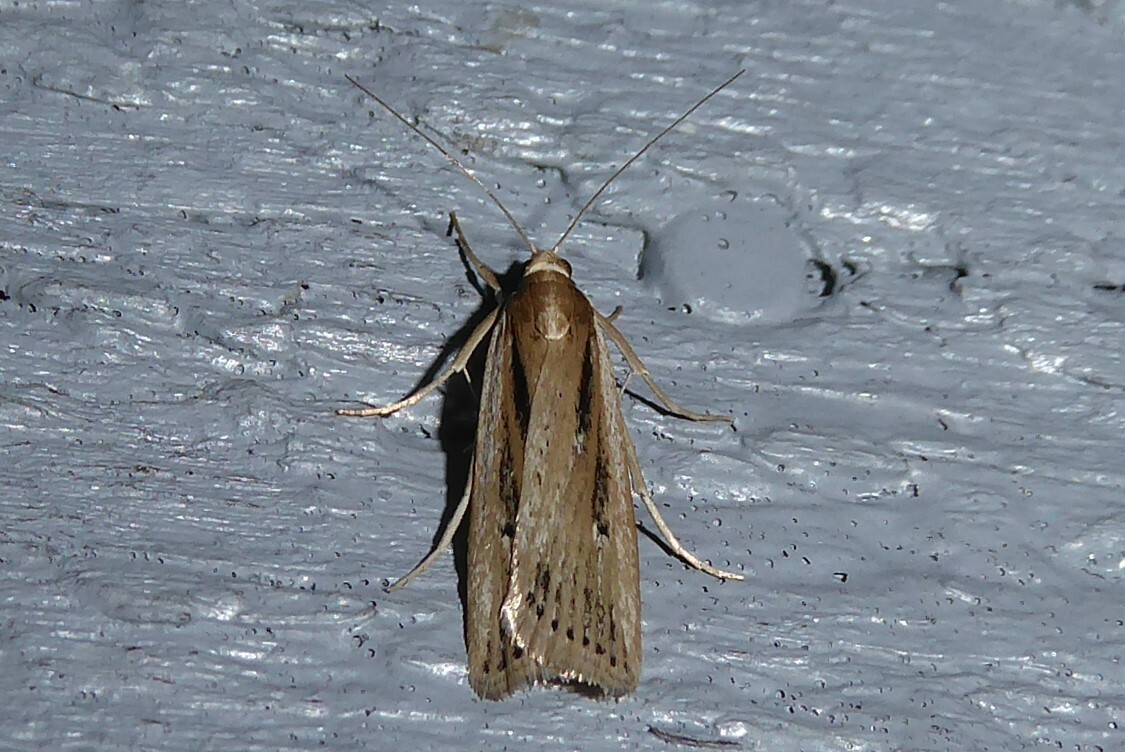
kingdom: Animalia
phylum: Arthropoda
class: Insecta
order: Lepidoptera
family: Crambidae
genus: Eudonia
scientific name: Eudonia sabulosella
